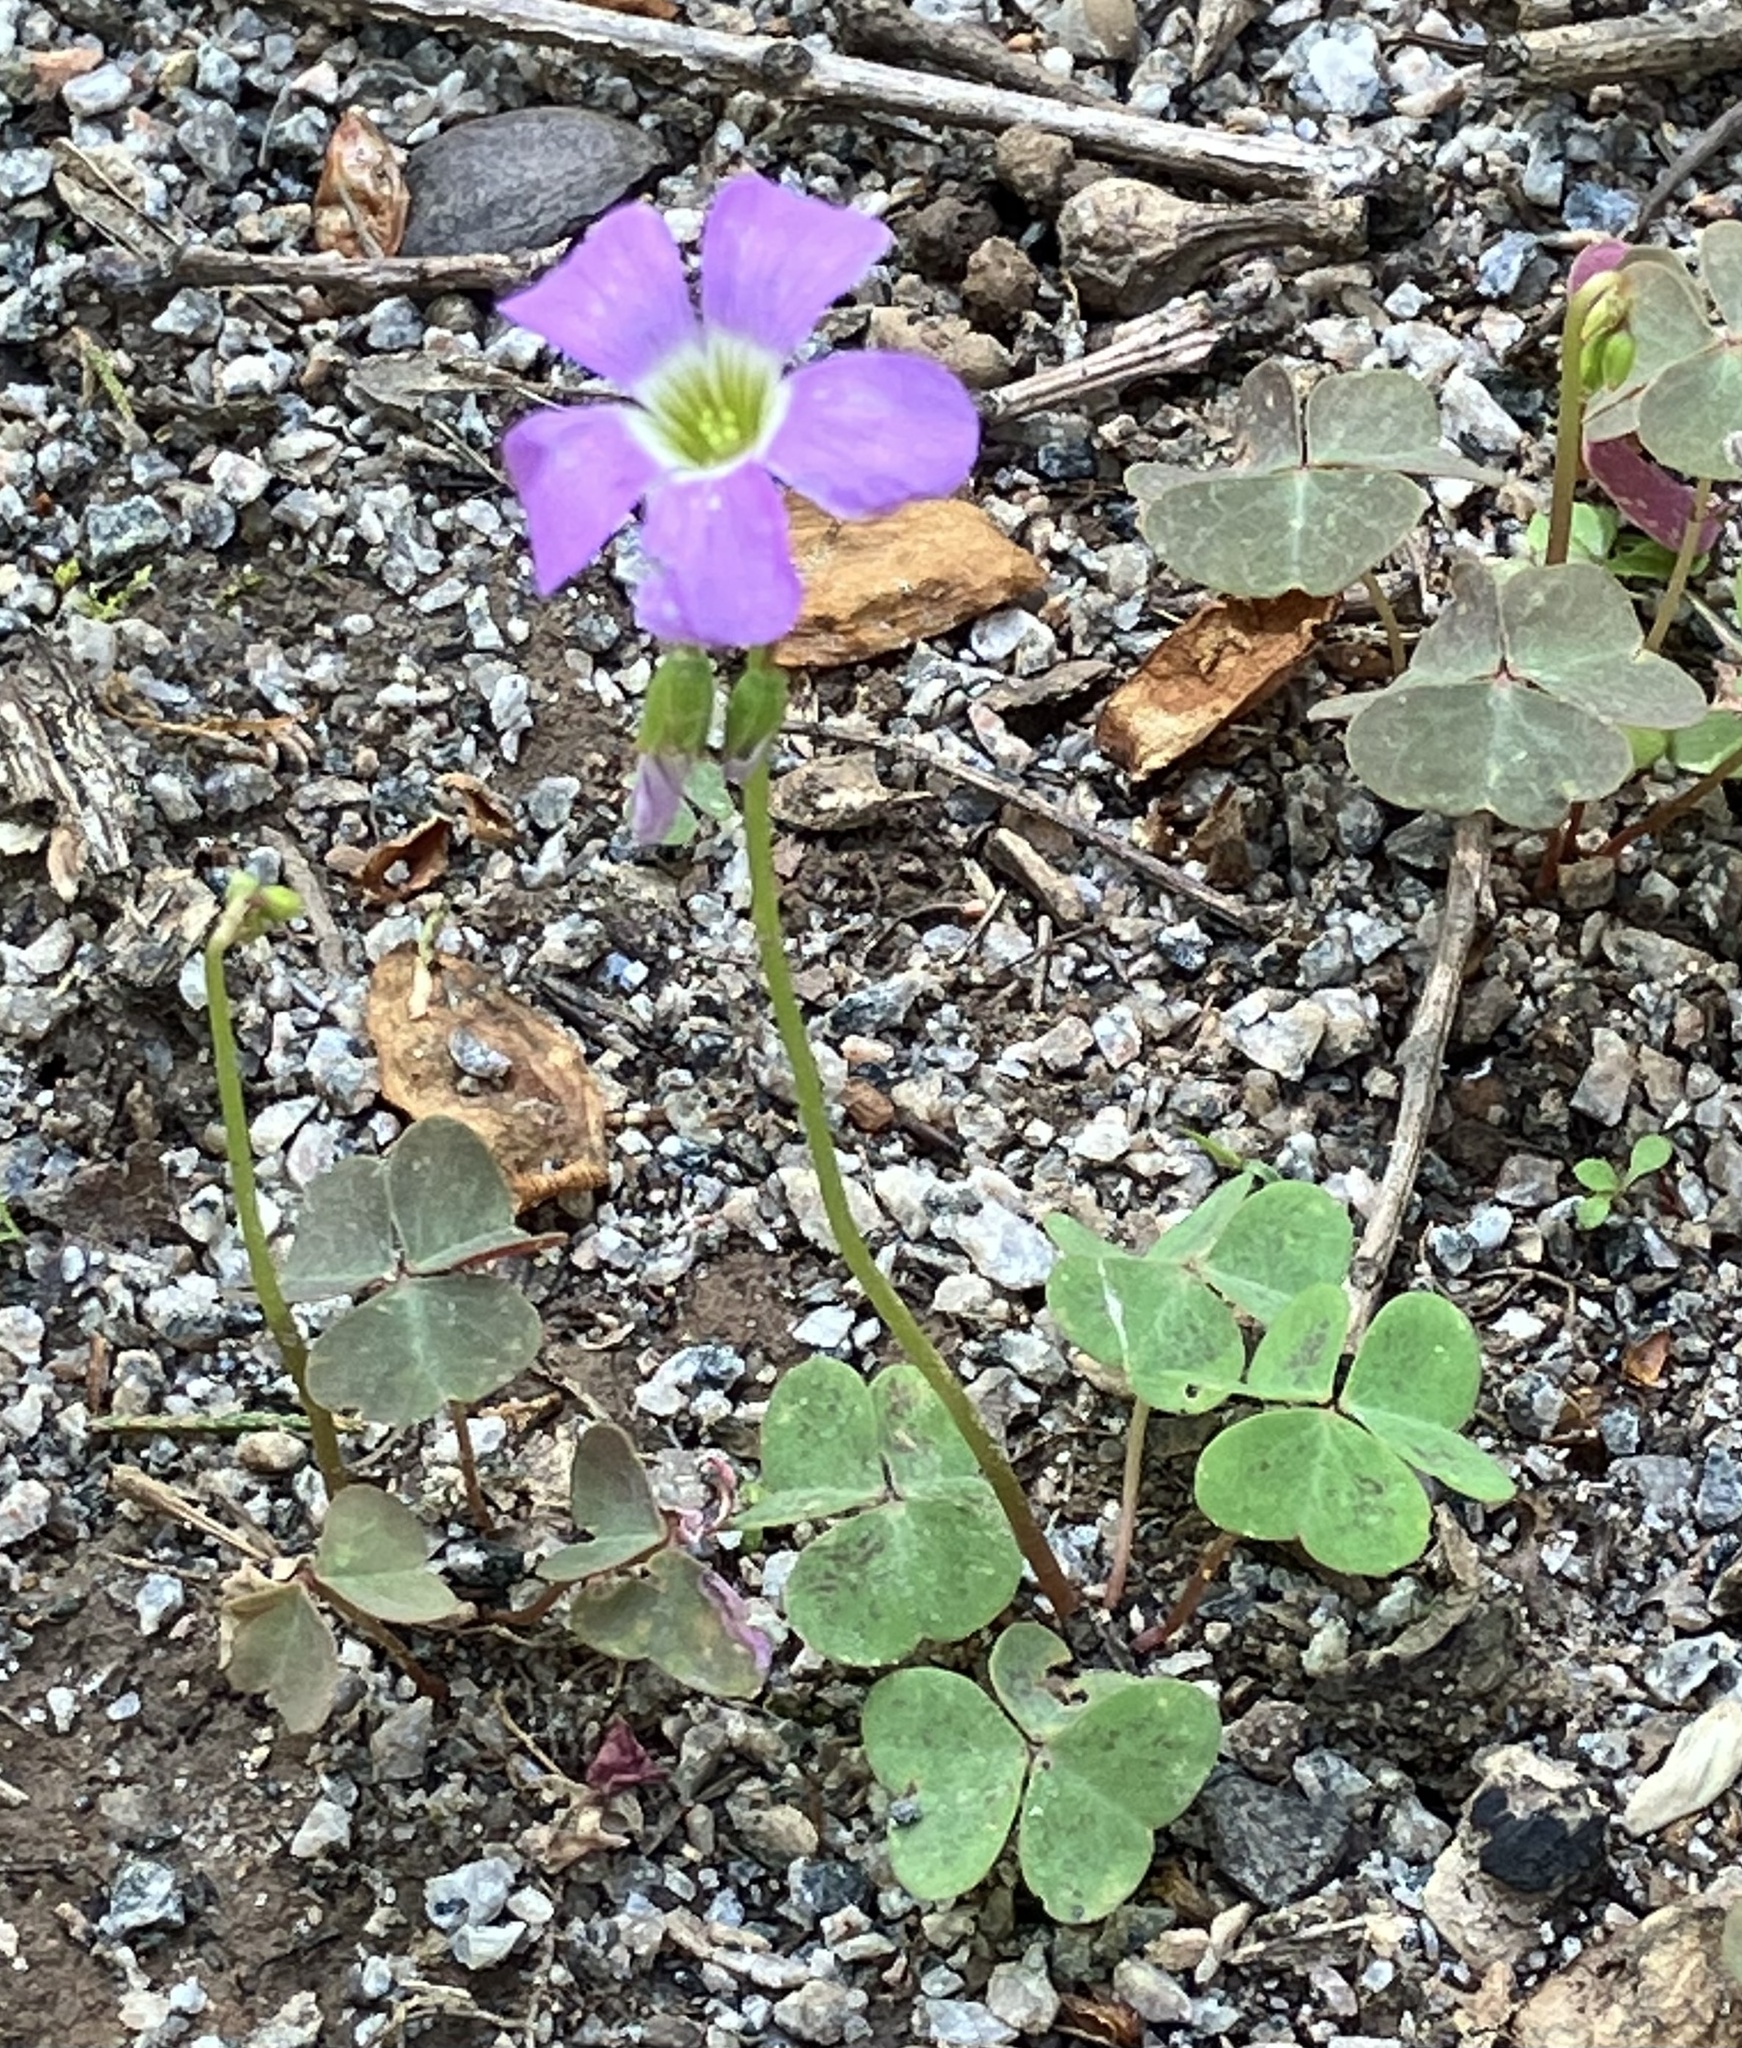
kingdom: Plantae
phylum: Tracheophyta
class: Magnoliopsida
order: Oxalidales
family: Oxalidaceae
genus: Oxalis
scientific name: Oxalis violacea
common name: Violet wood-sorrel
